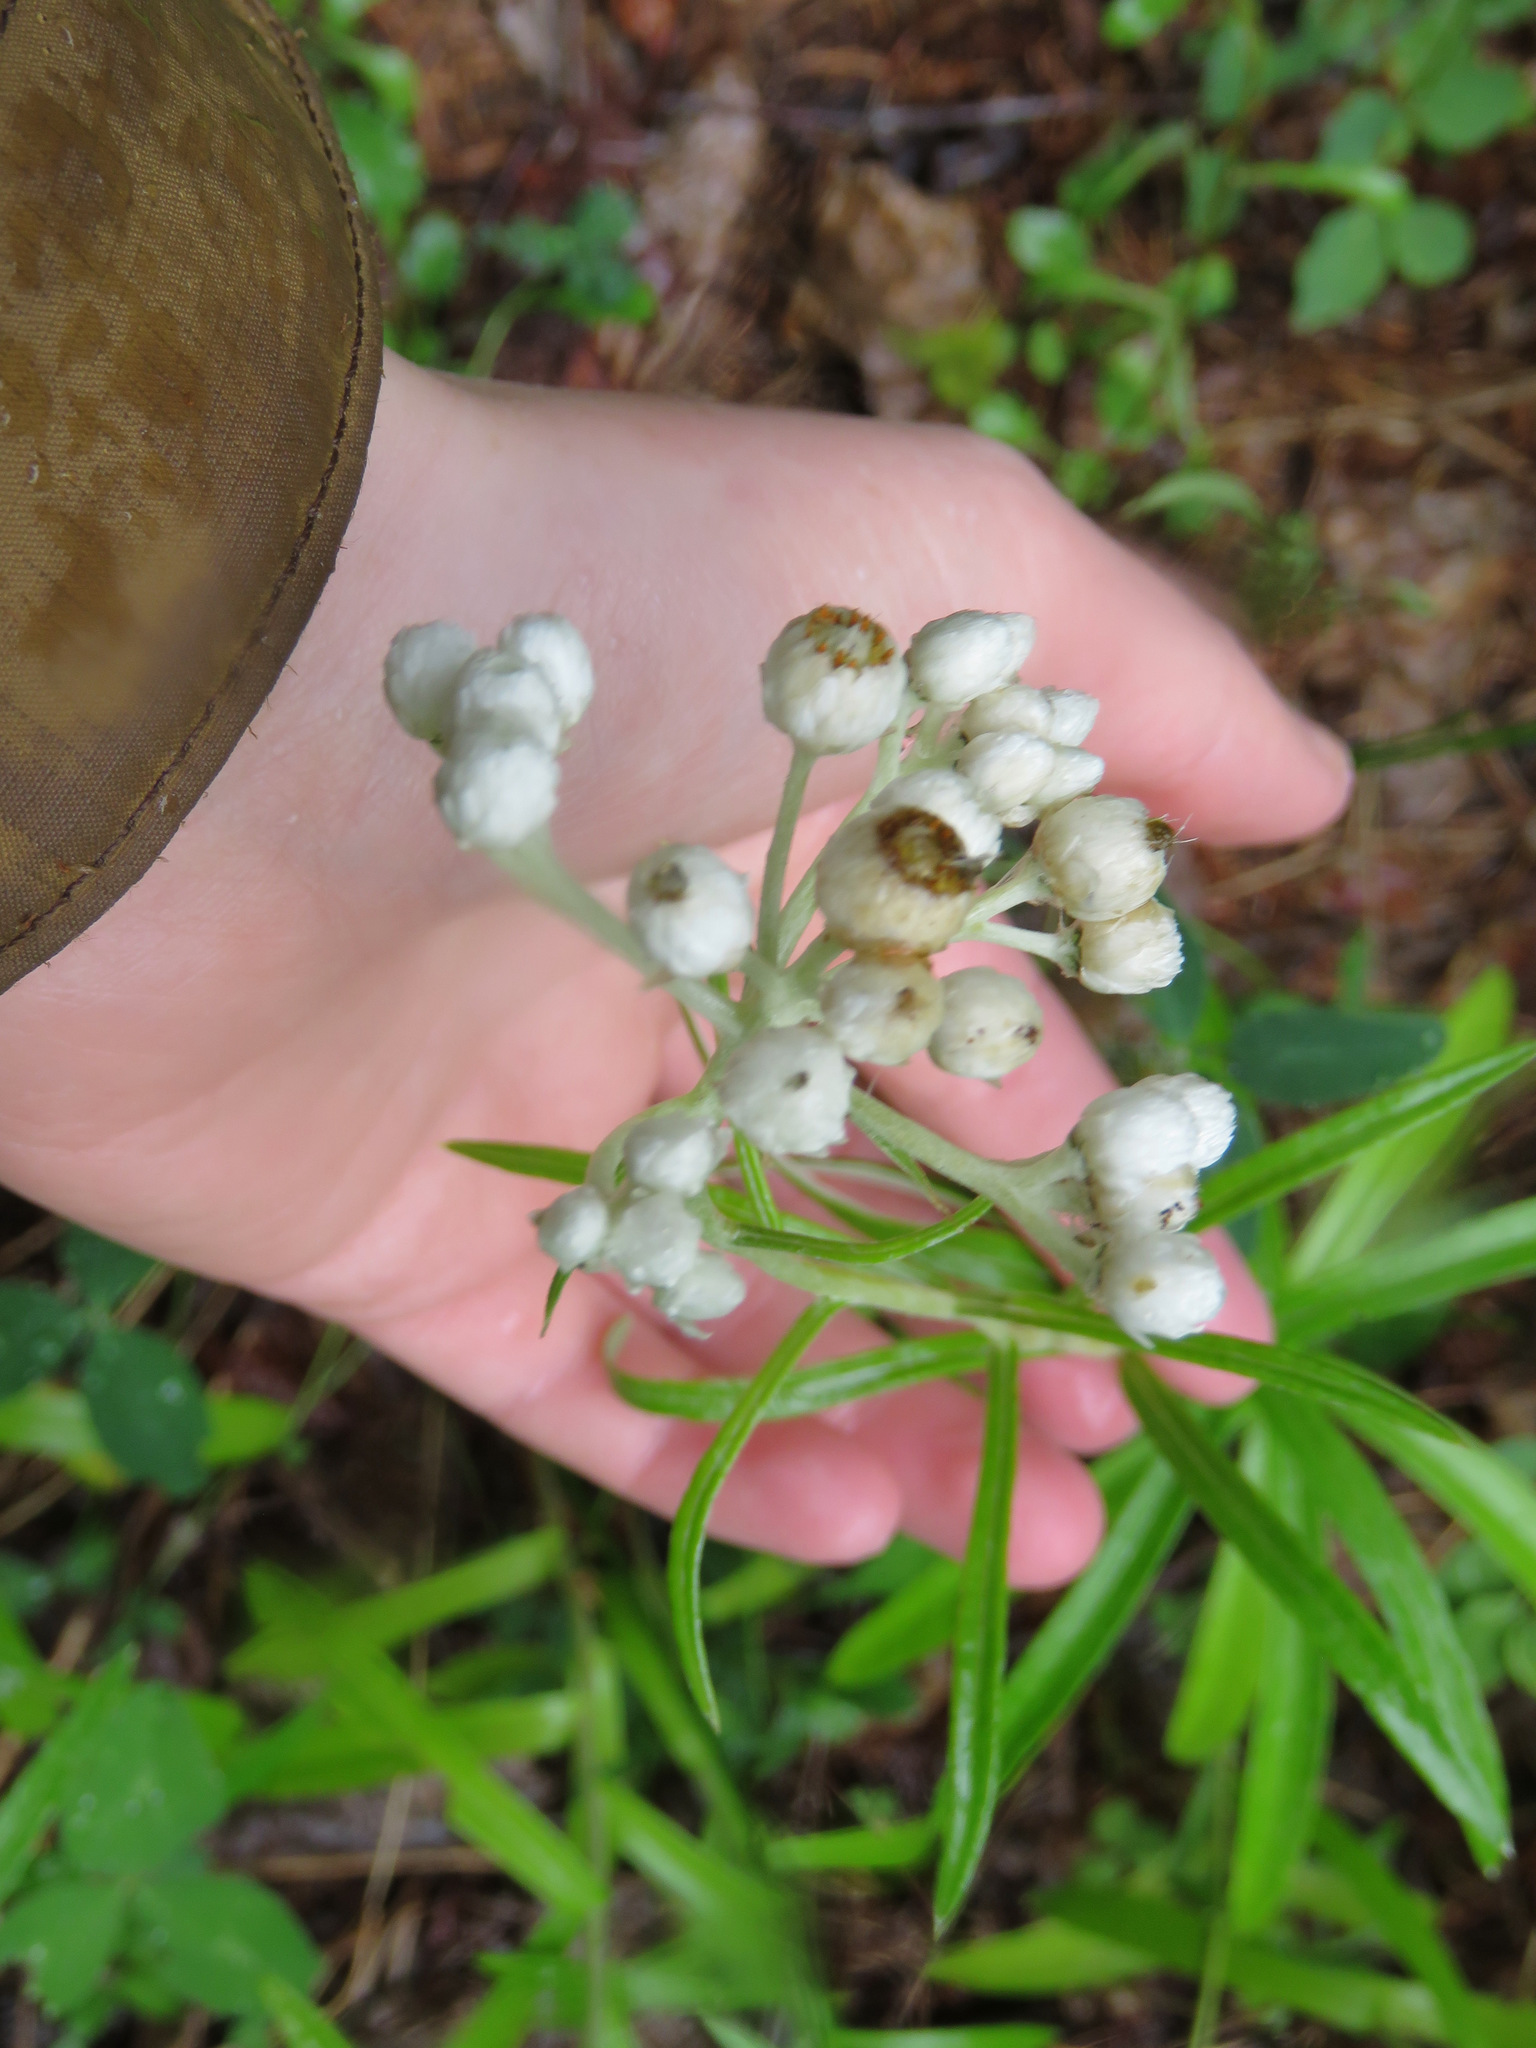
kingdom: Plantae
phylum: Tracheophyta
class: Magnoliopsida
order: Asterales
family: Asteraceae
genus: Anaphalis
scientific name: Anaphalis margaritacea
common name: Pearly everlasting
